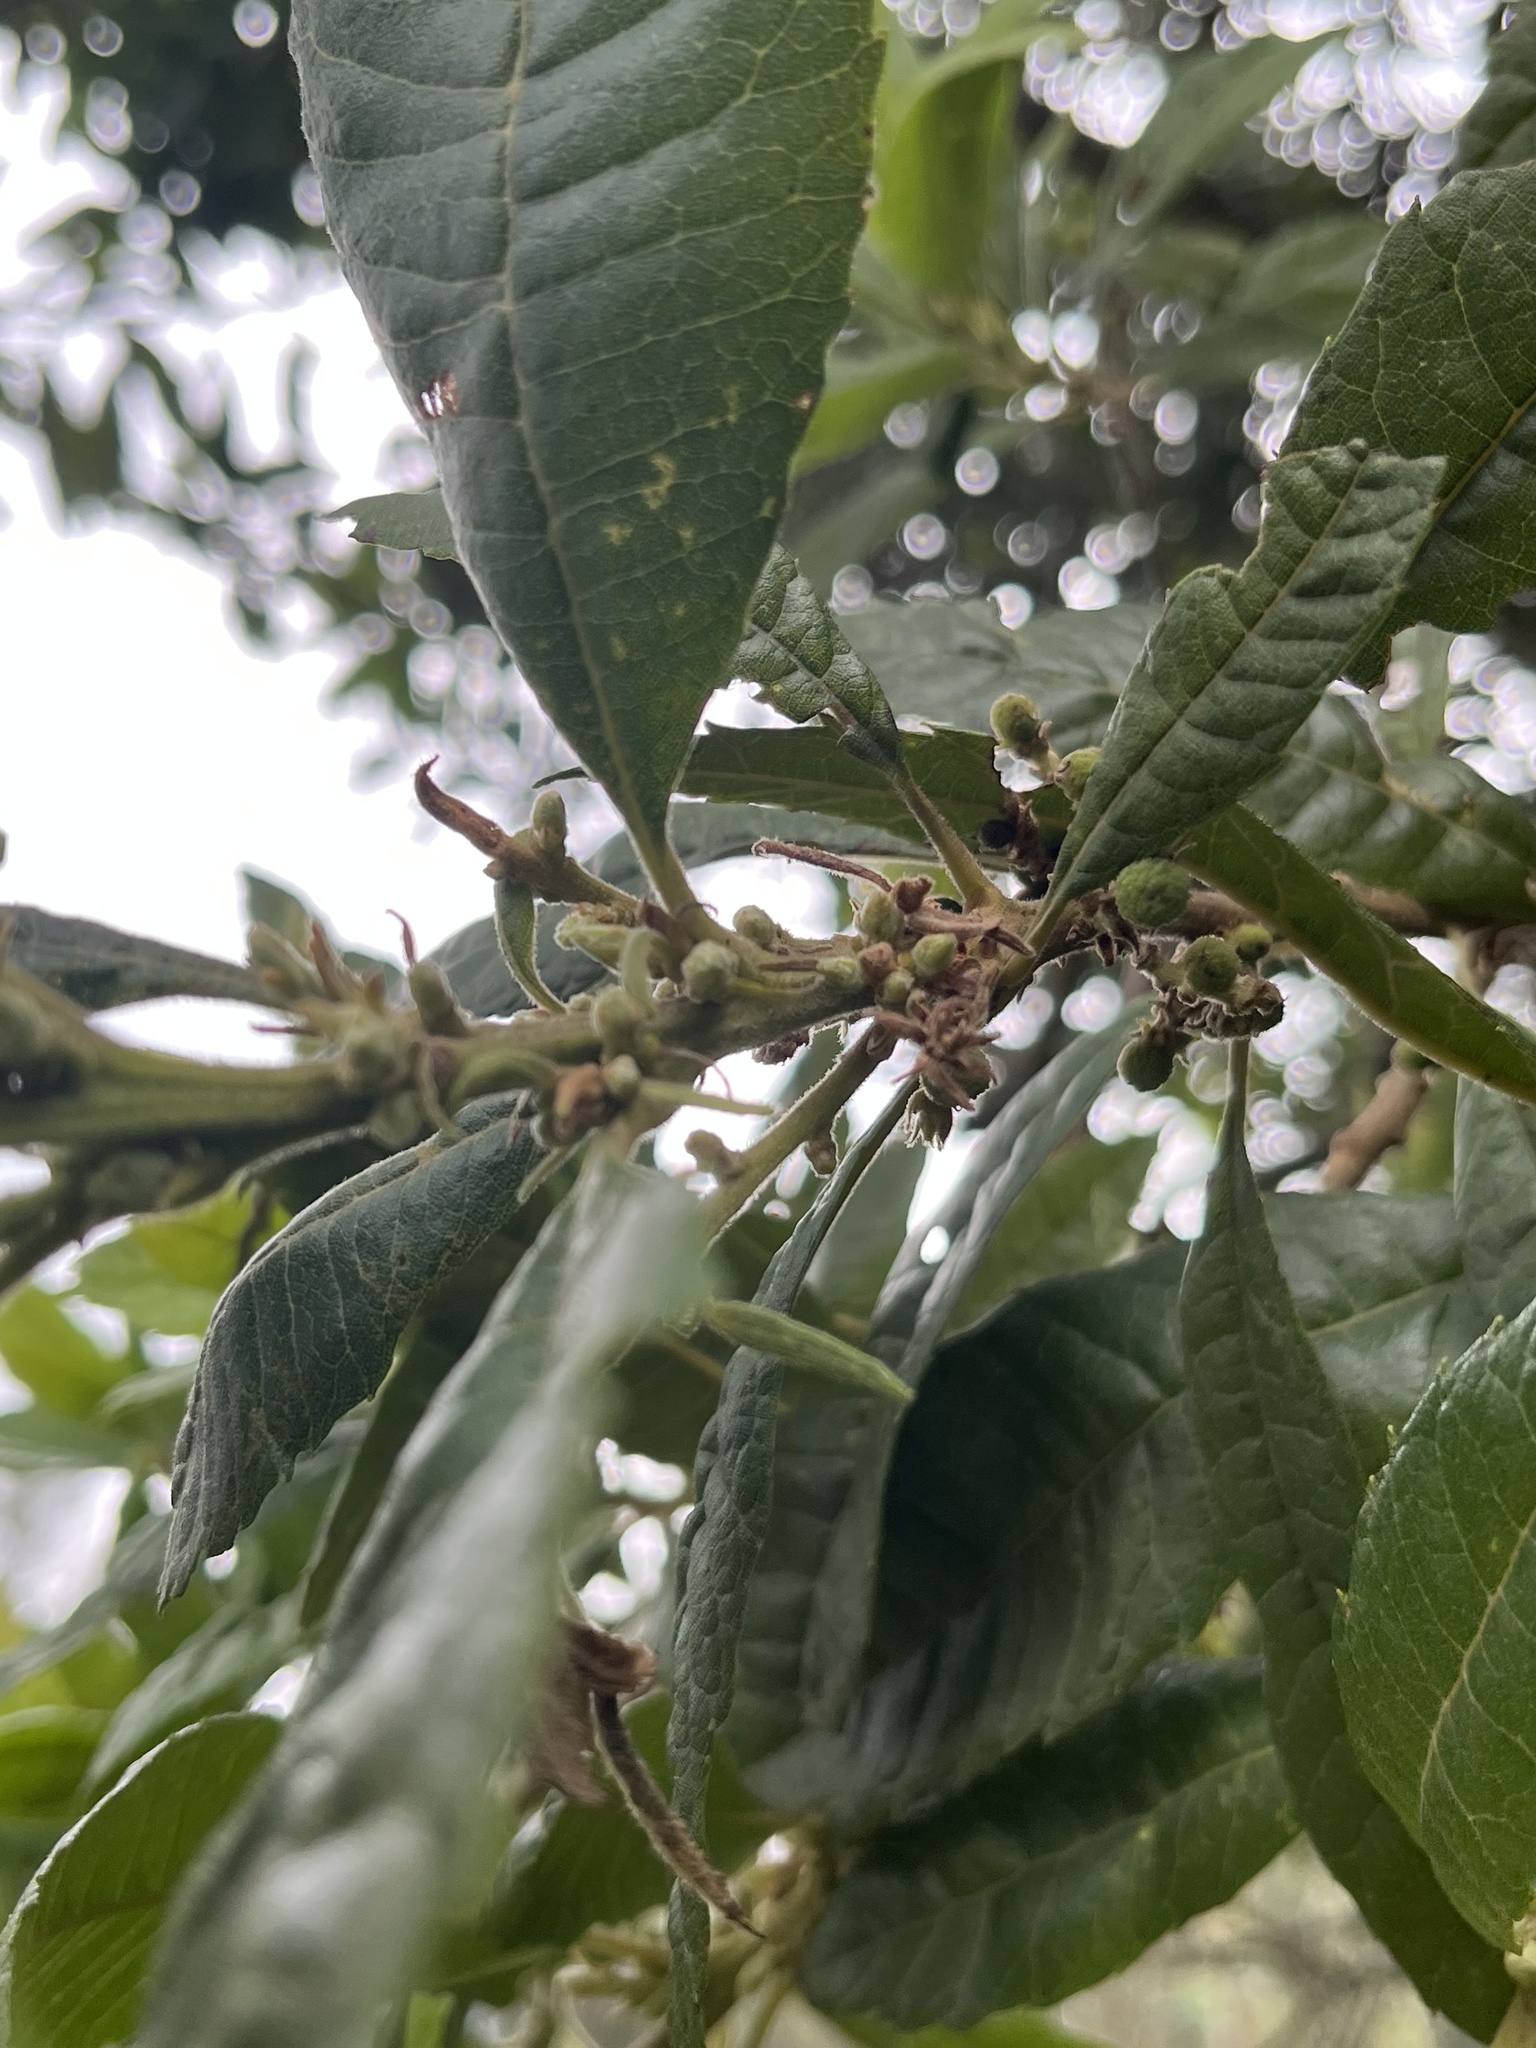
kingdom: Plantae
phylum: Tracheophyta
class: Magnoliopsida
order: Fagales
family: Myricaceae
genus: Morella
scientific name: Morella pubescens
